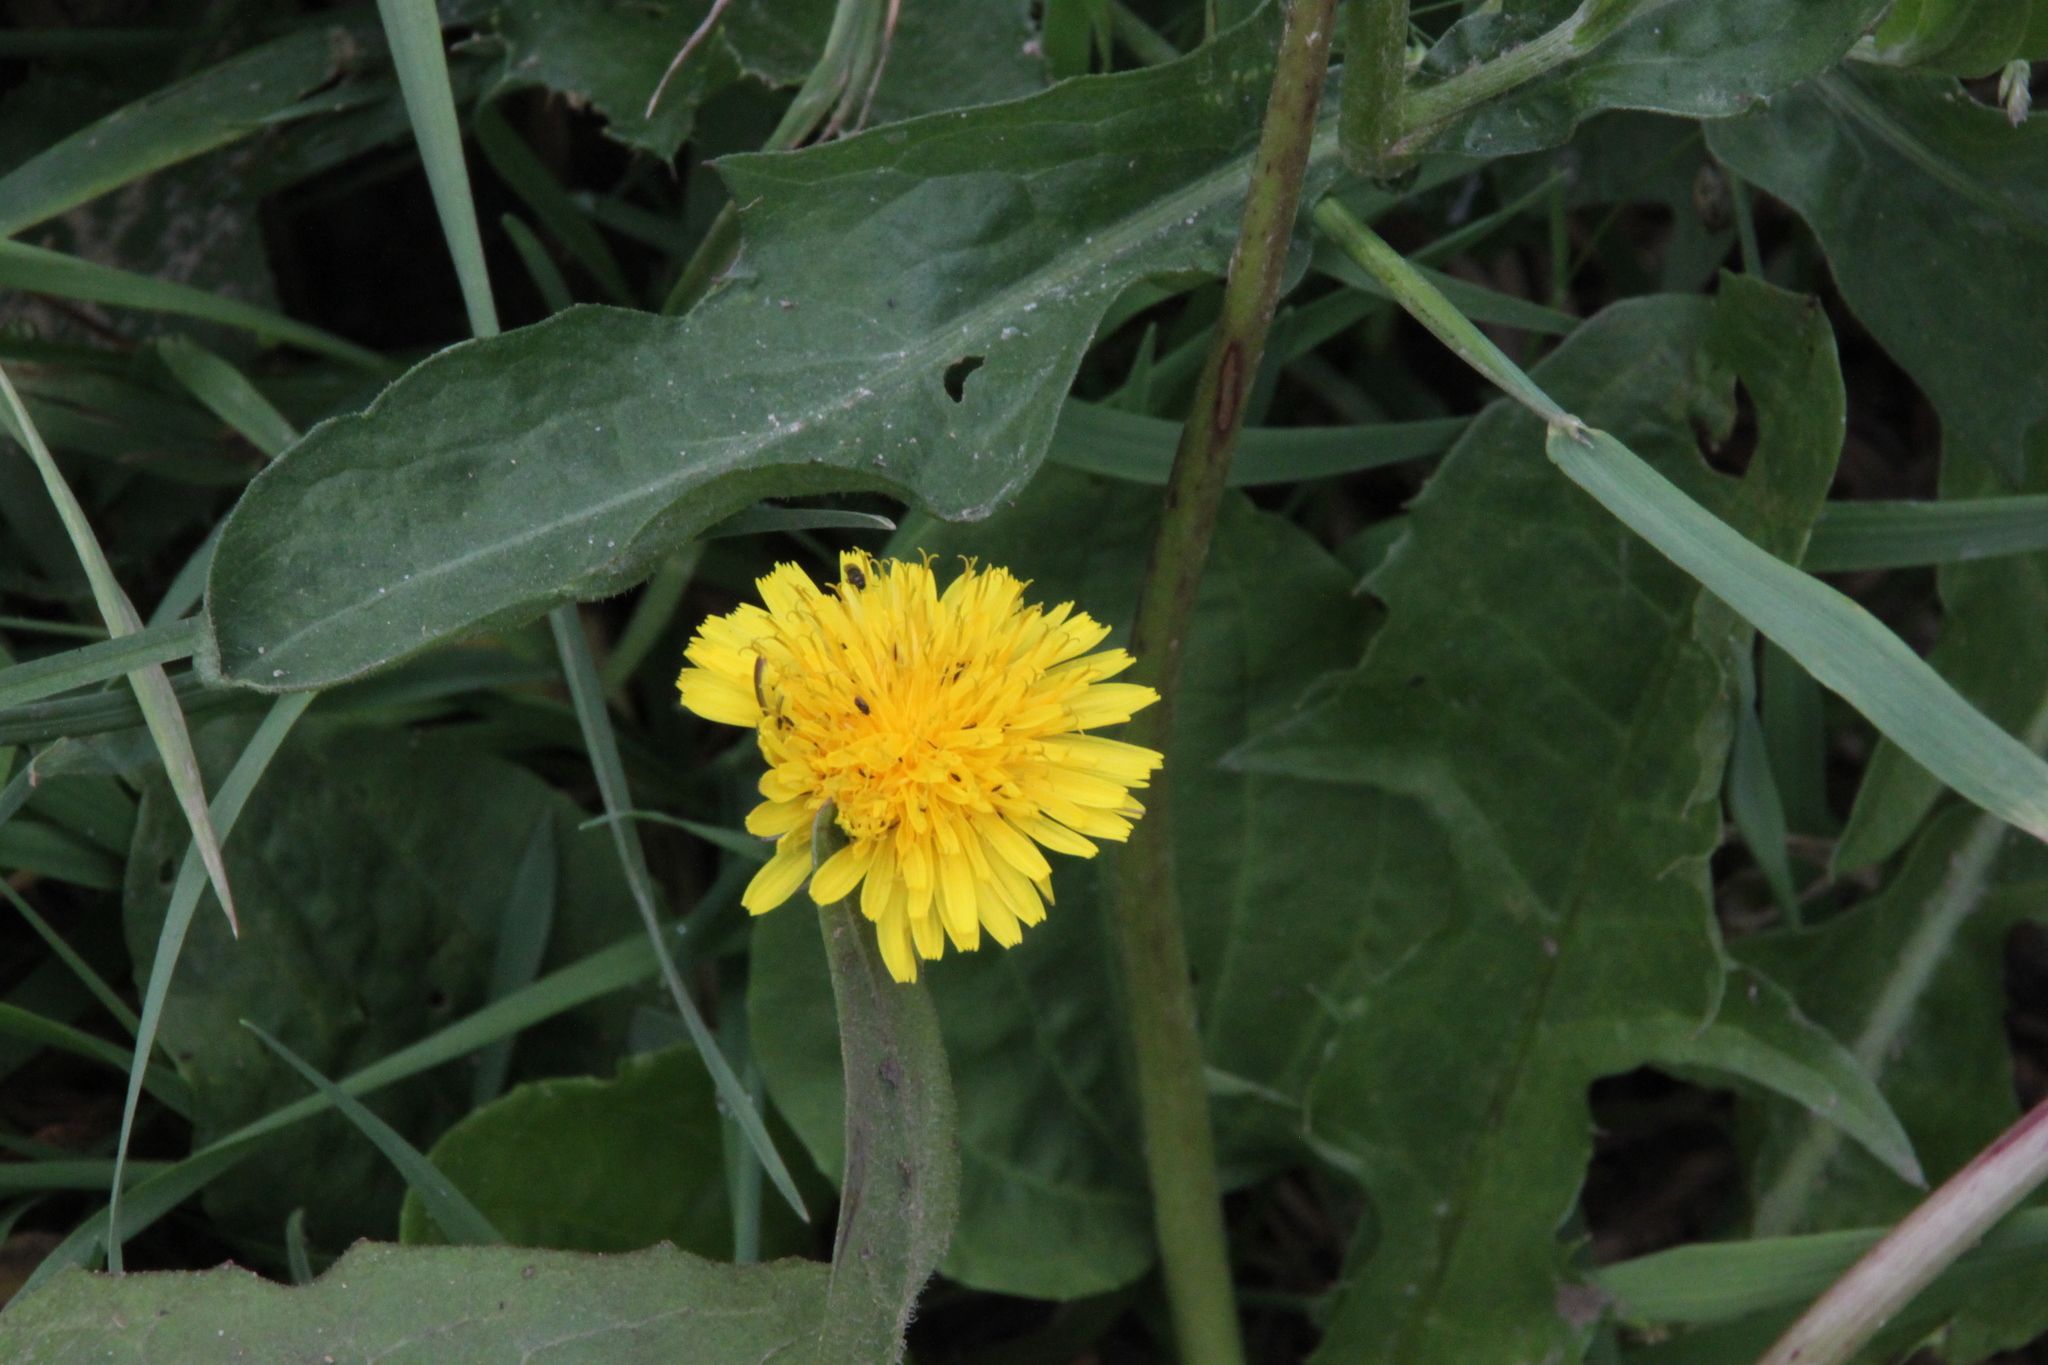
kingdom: Plantae
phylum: Tracheophyta
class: Magnoliopsida
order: Asterales
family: Asteraceae
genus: Taraxacum
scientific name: Taraxacum officinale
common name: Common dandelion
